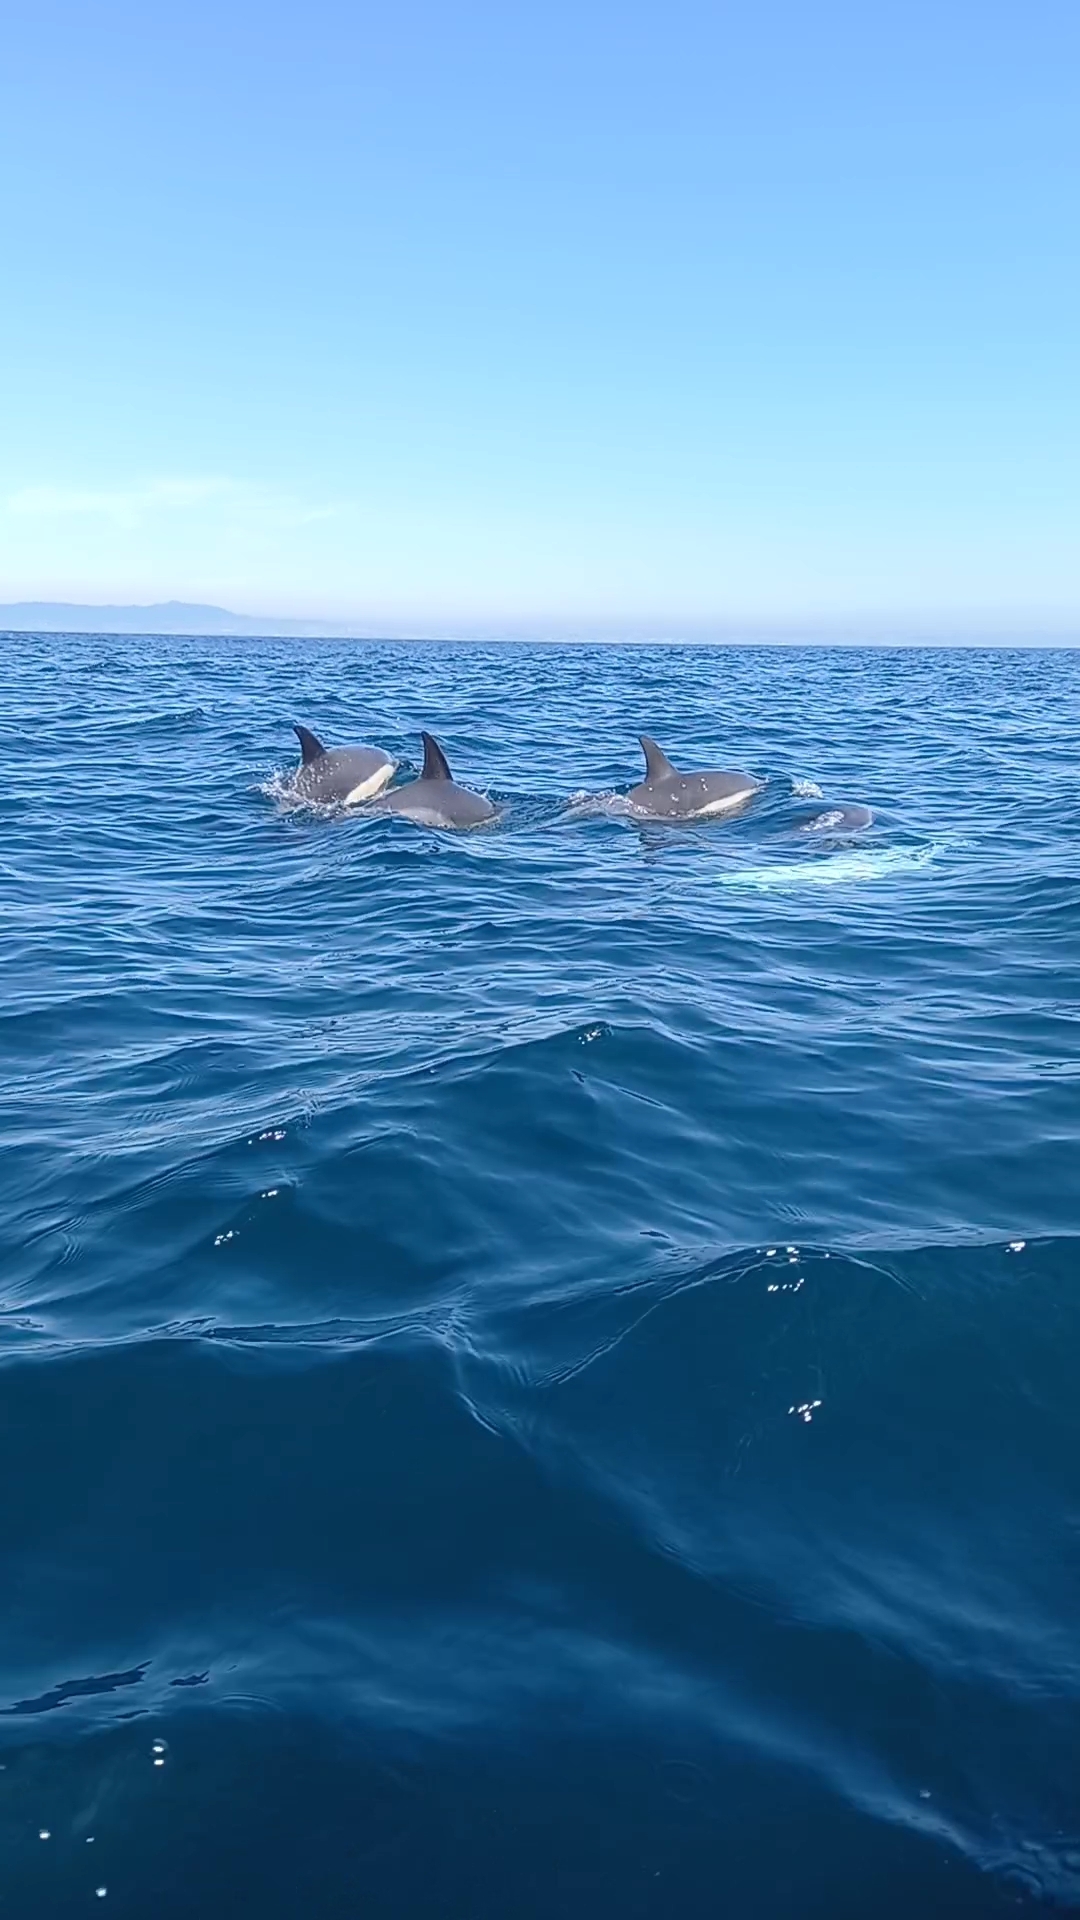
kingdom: Animalia
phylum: Chordata
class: Mammalia
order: Cetacea
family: Delphinidae
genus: Delphinus
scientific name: Delphinus delphis
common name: Common dolphin
